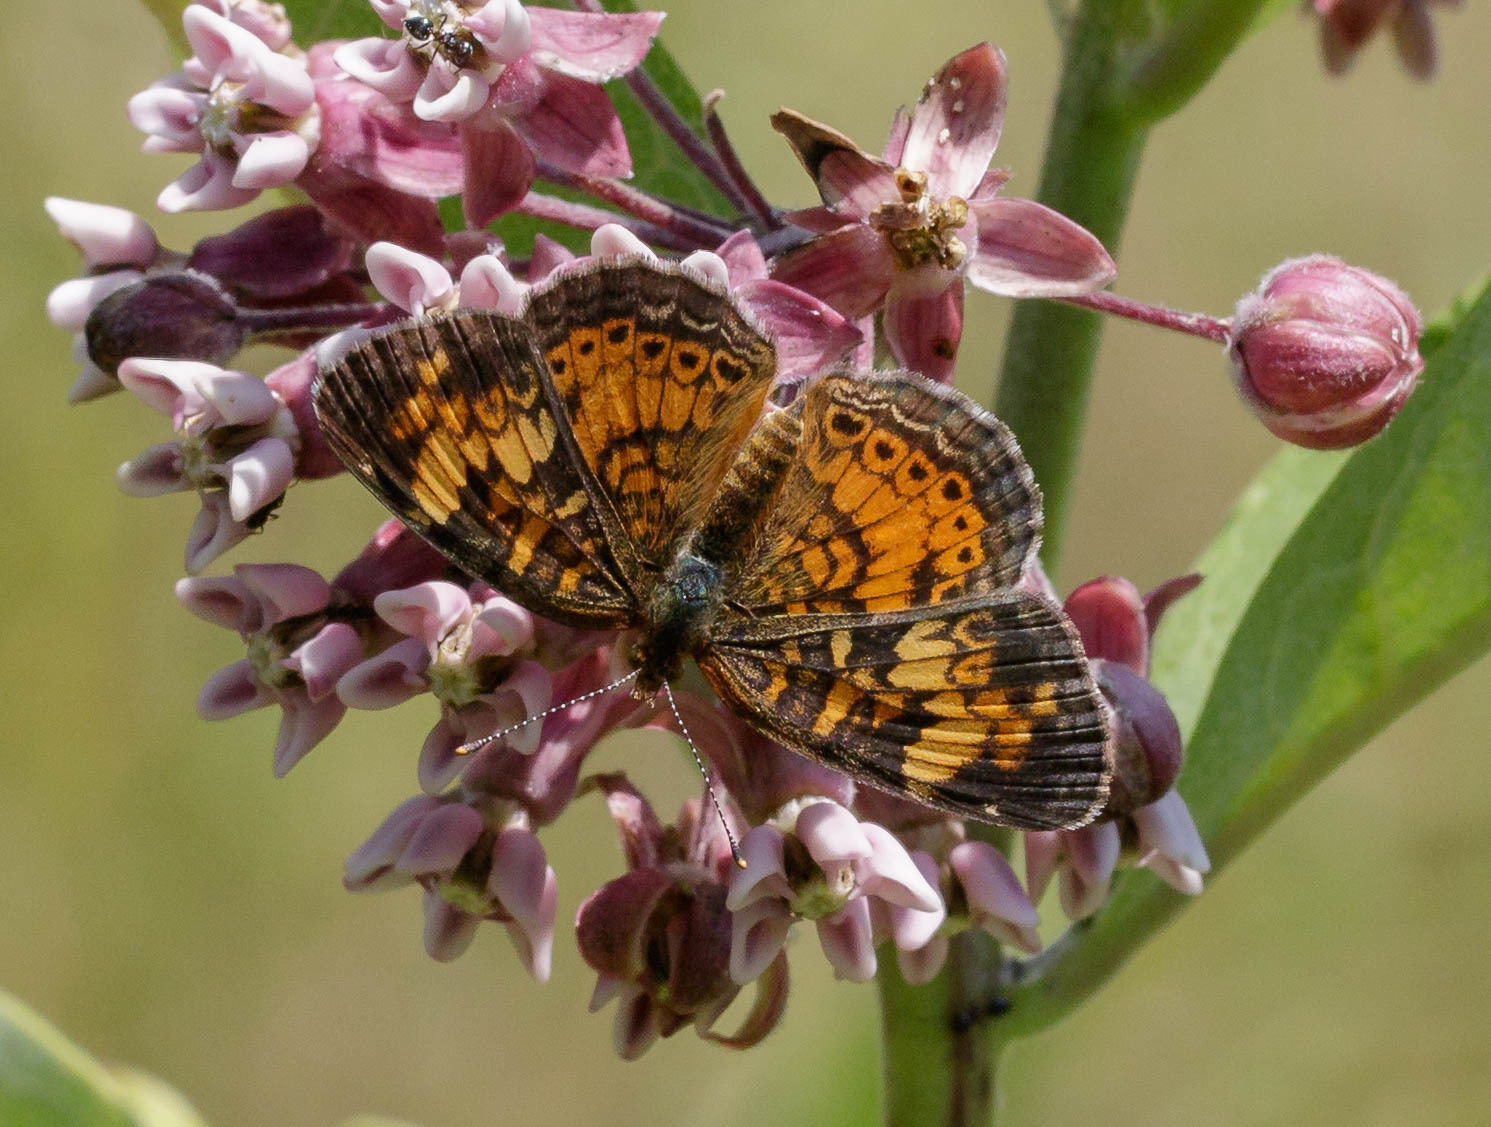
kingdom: Animalia
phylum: Arthropoda
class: Insecta
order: Lepidoptera
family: Nymphalidae
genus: Phyciodes
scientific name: Phyciodes tharos
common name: Pearl crescent
